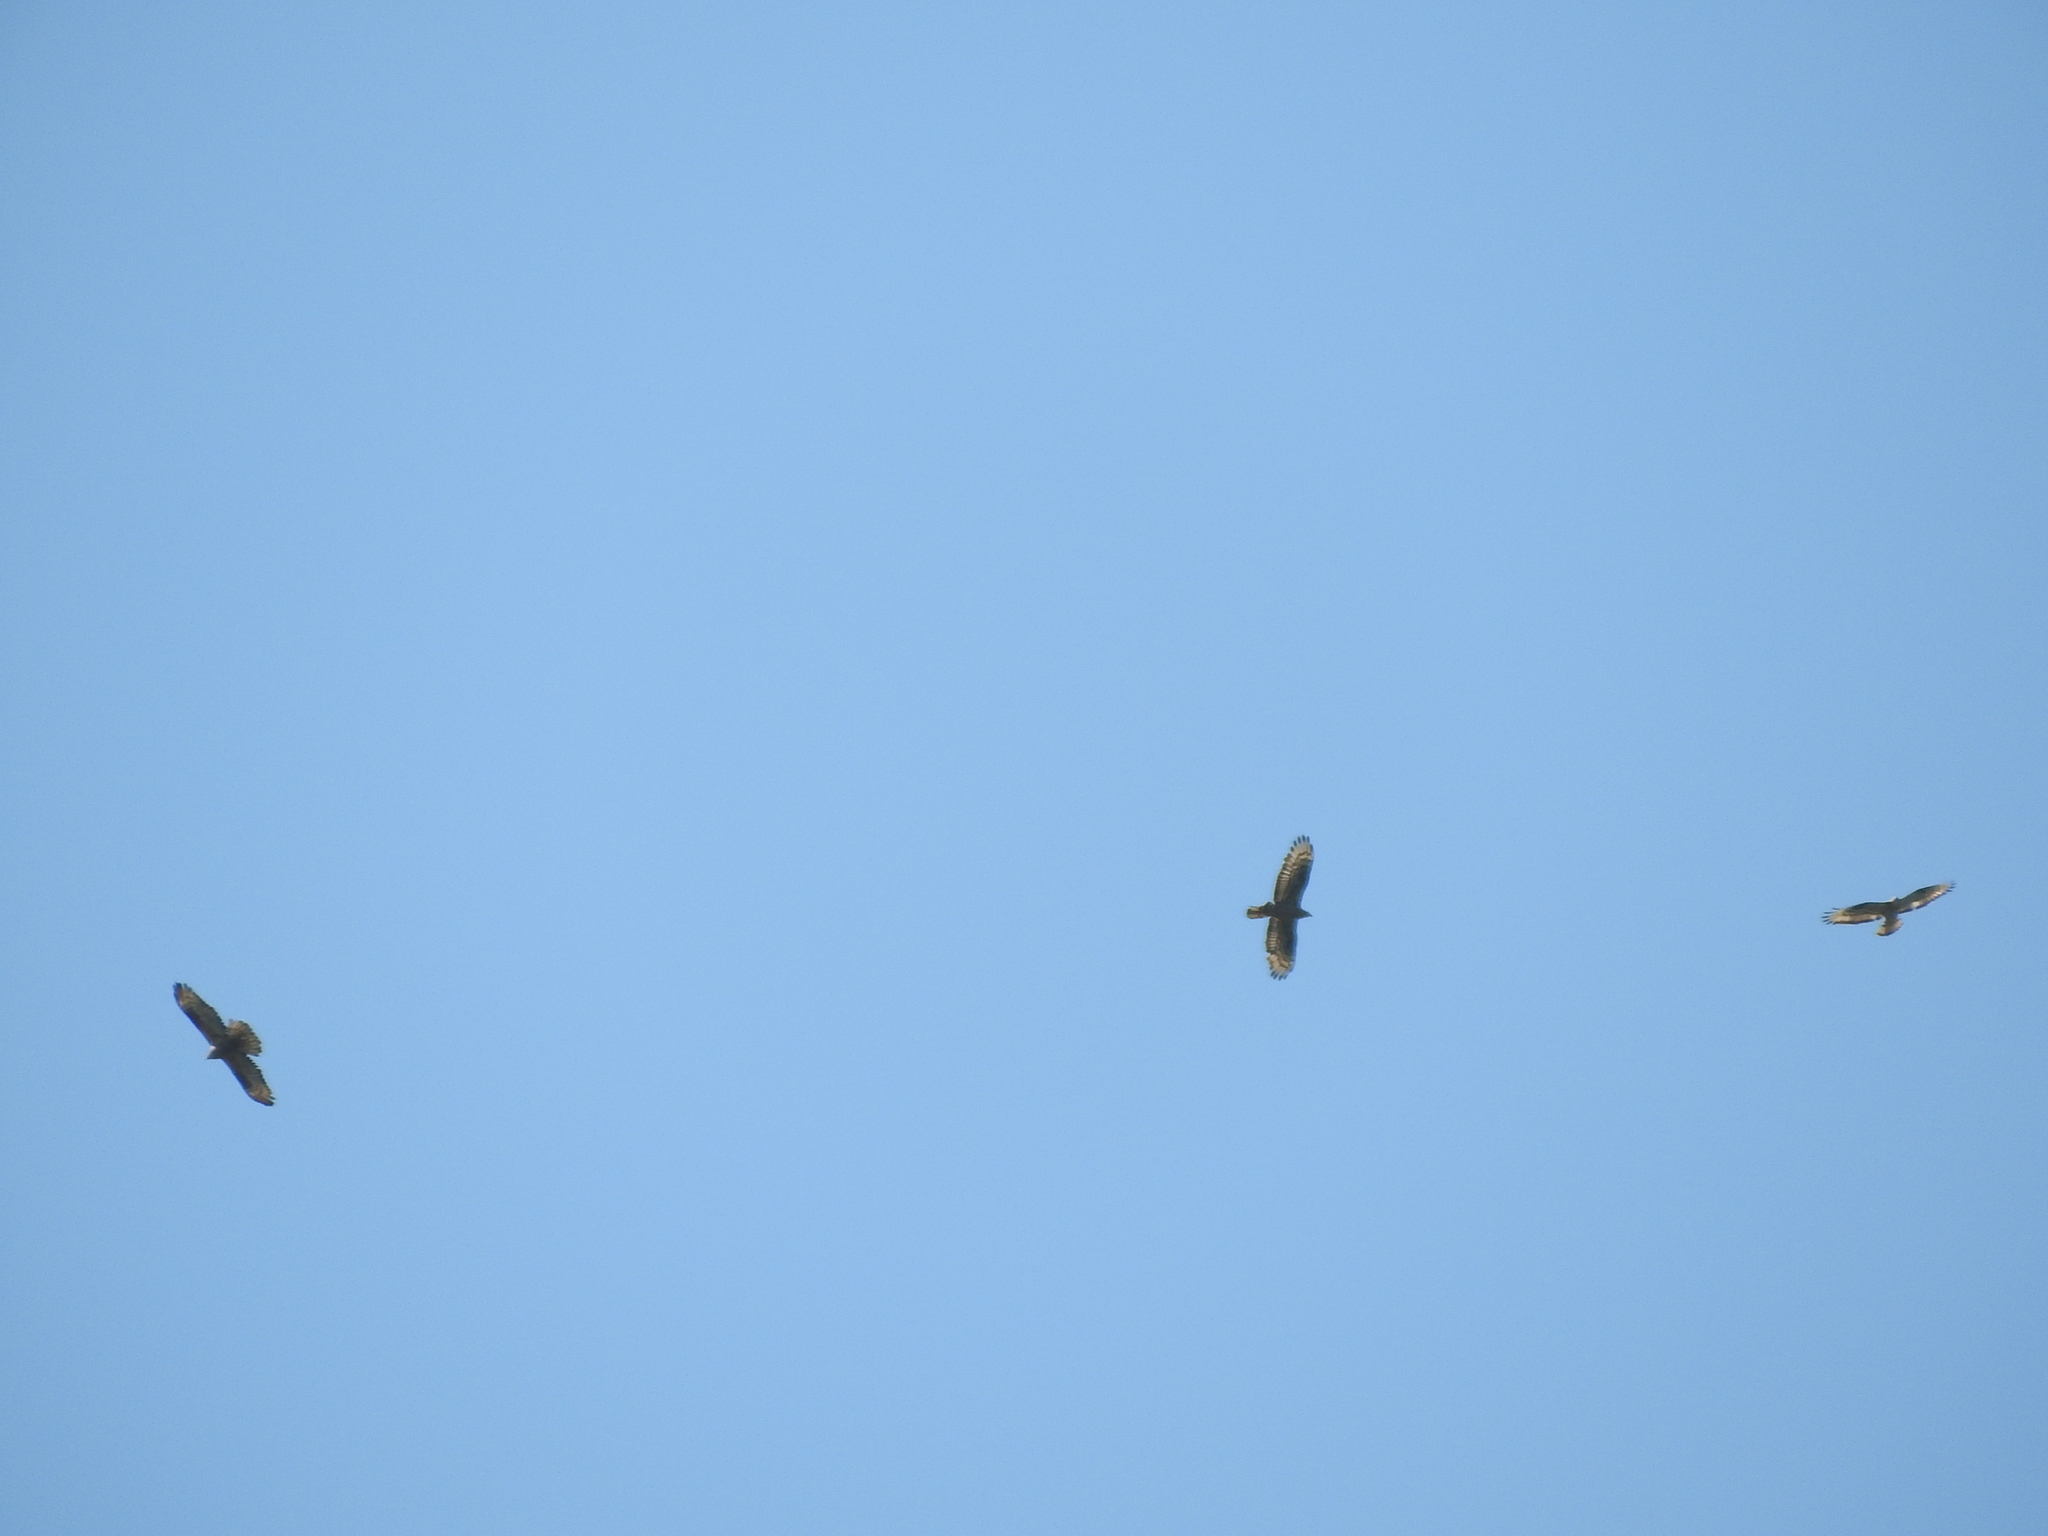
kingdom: Animalia
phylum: Chordata
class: Aves
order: Accipitriformes
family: Accipitridae
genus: Pernis
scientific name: Pernis apivorus
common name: European honey buzzard
